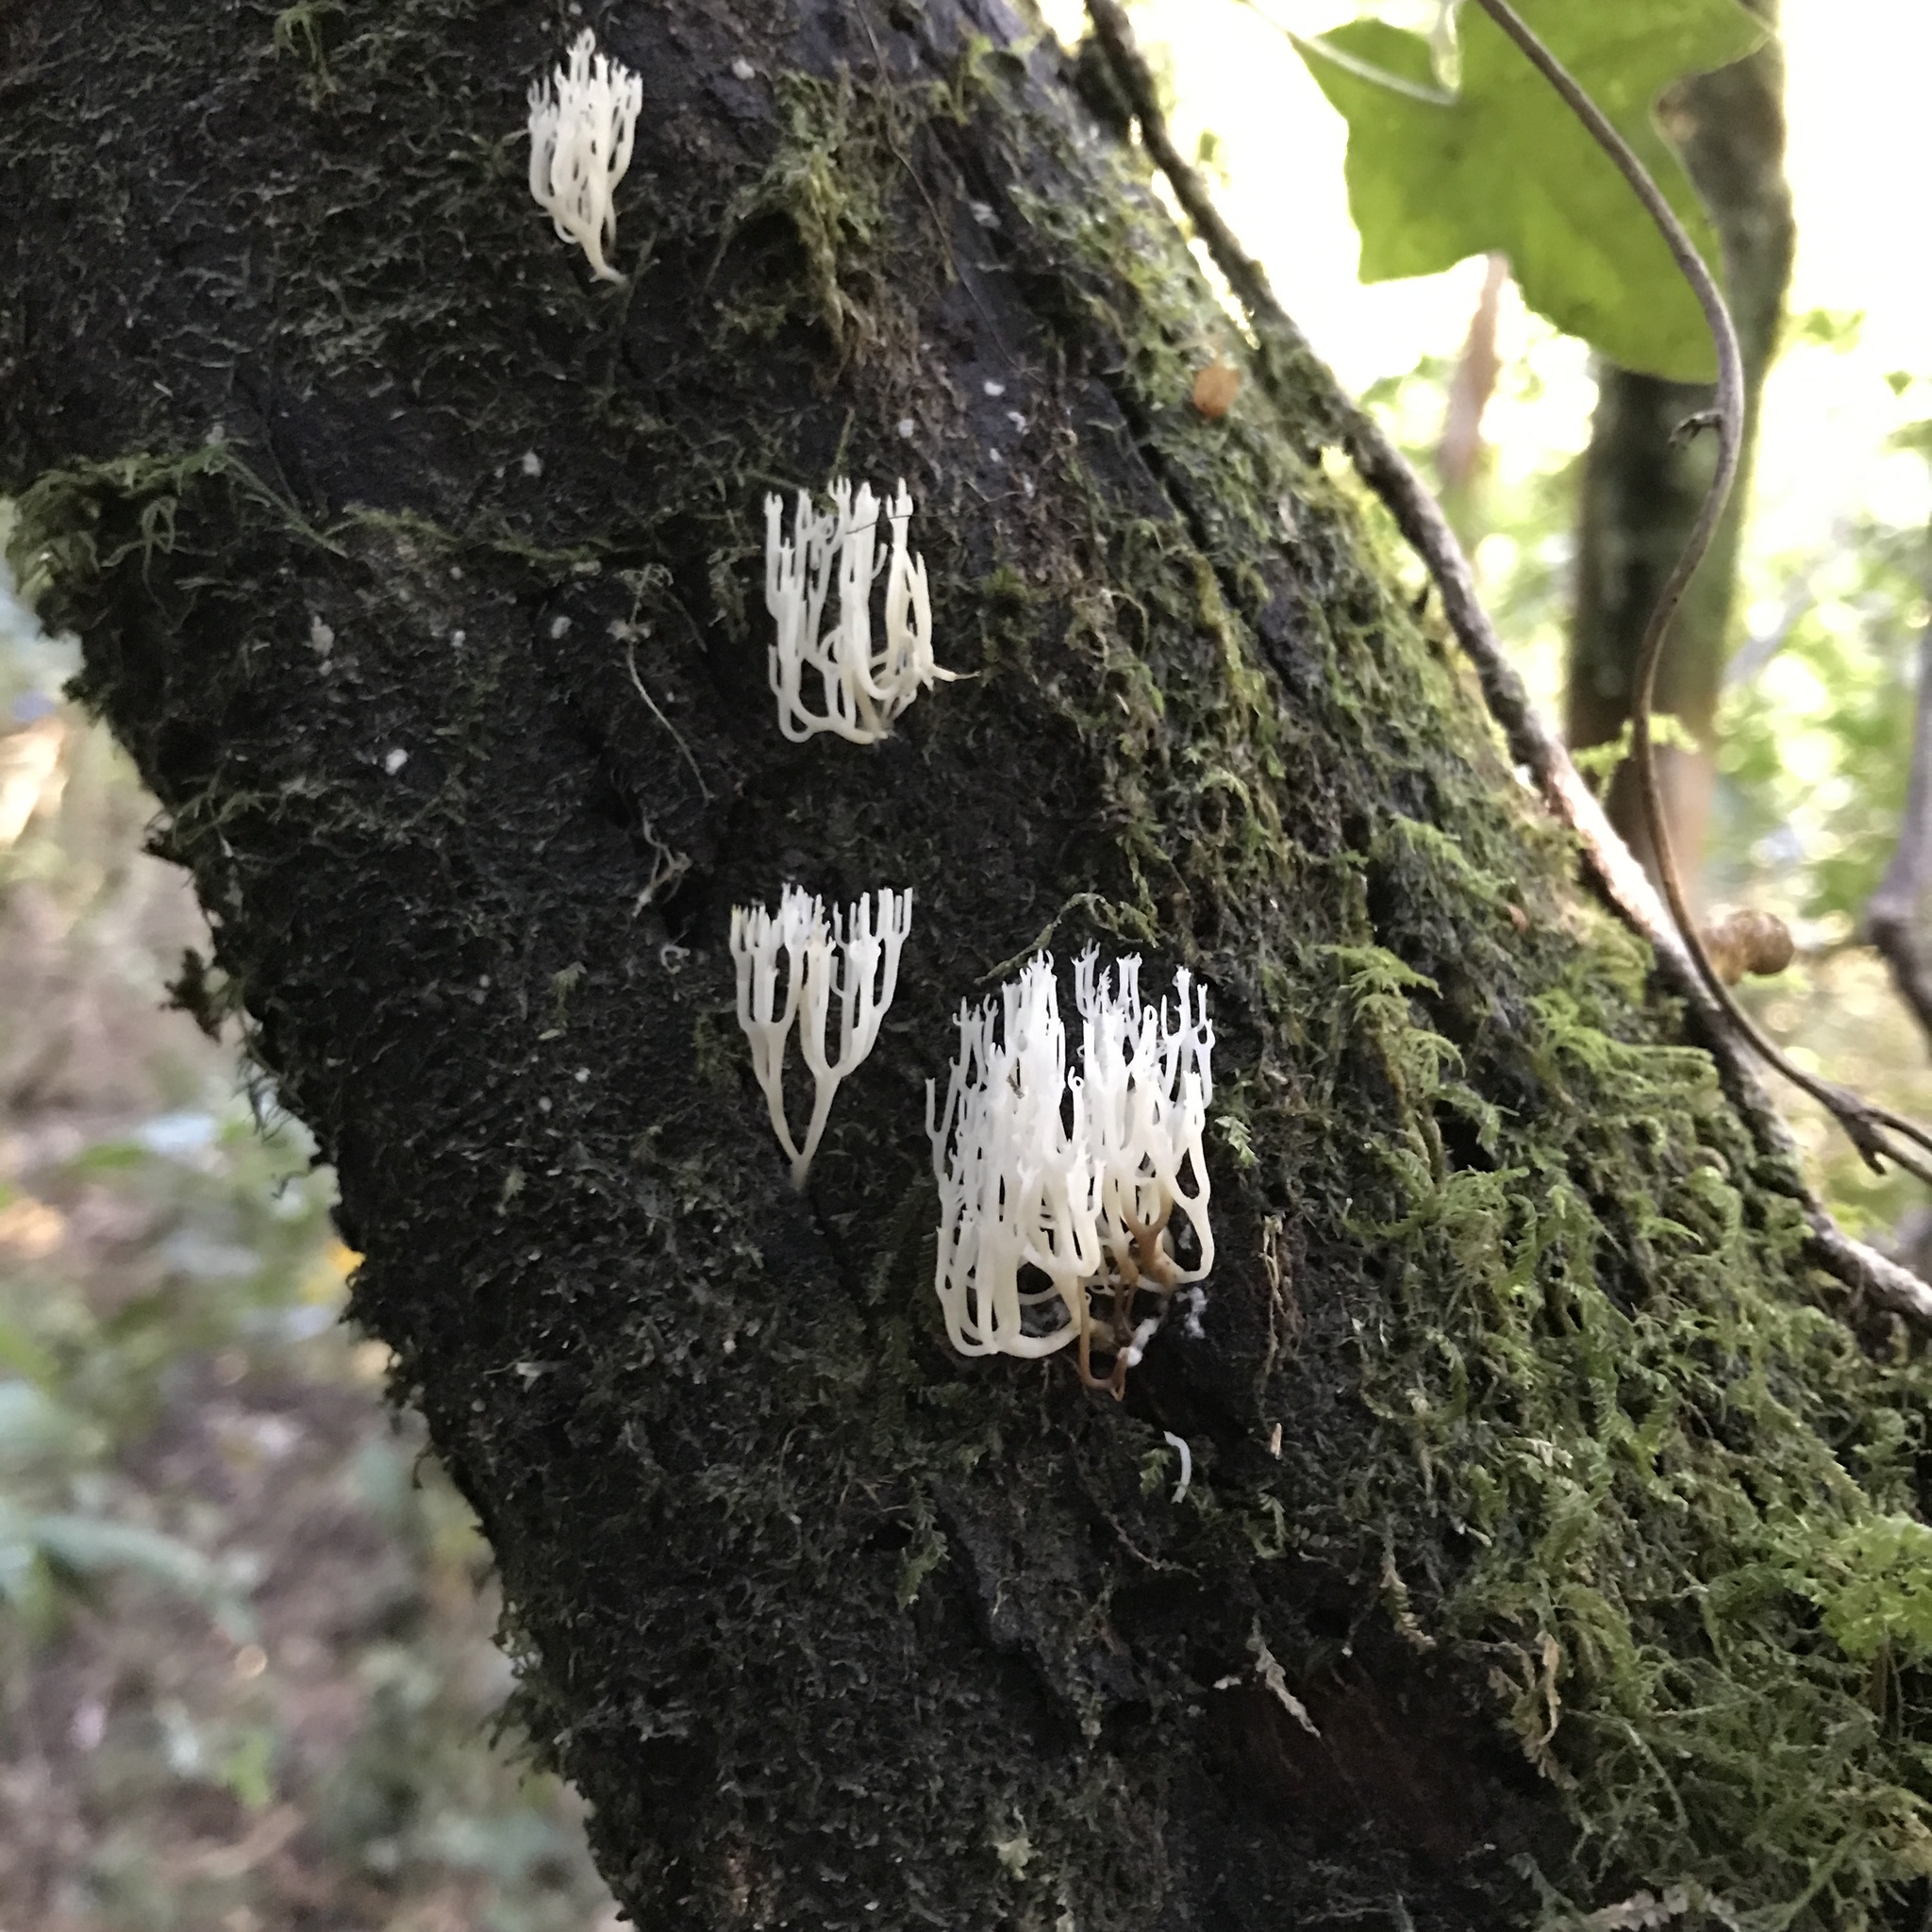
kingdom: Fungi
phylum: Basidiomycota
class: Agaricomycetes
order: Russulales
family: Auriscalpiaceae
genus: Artomyces
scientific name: Artomyces adrienneae
